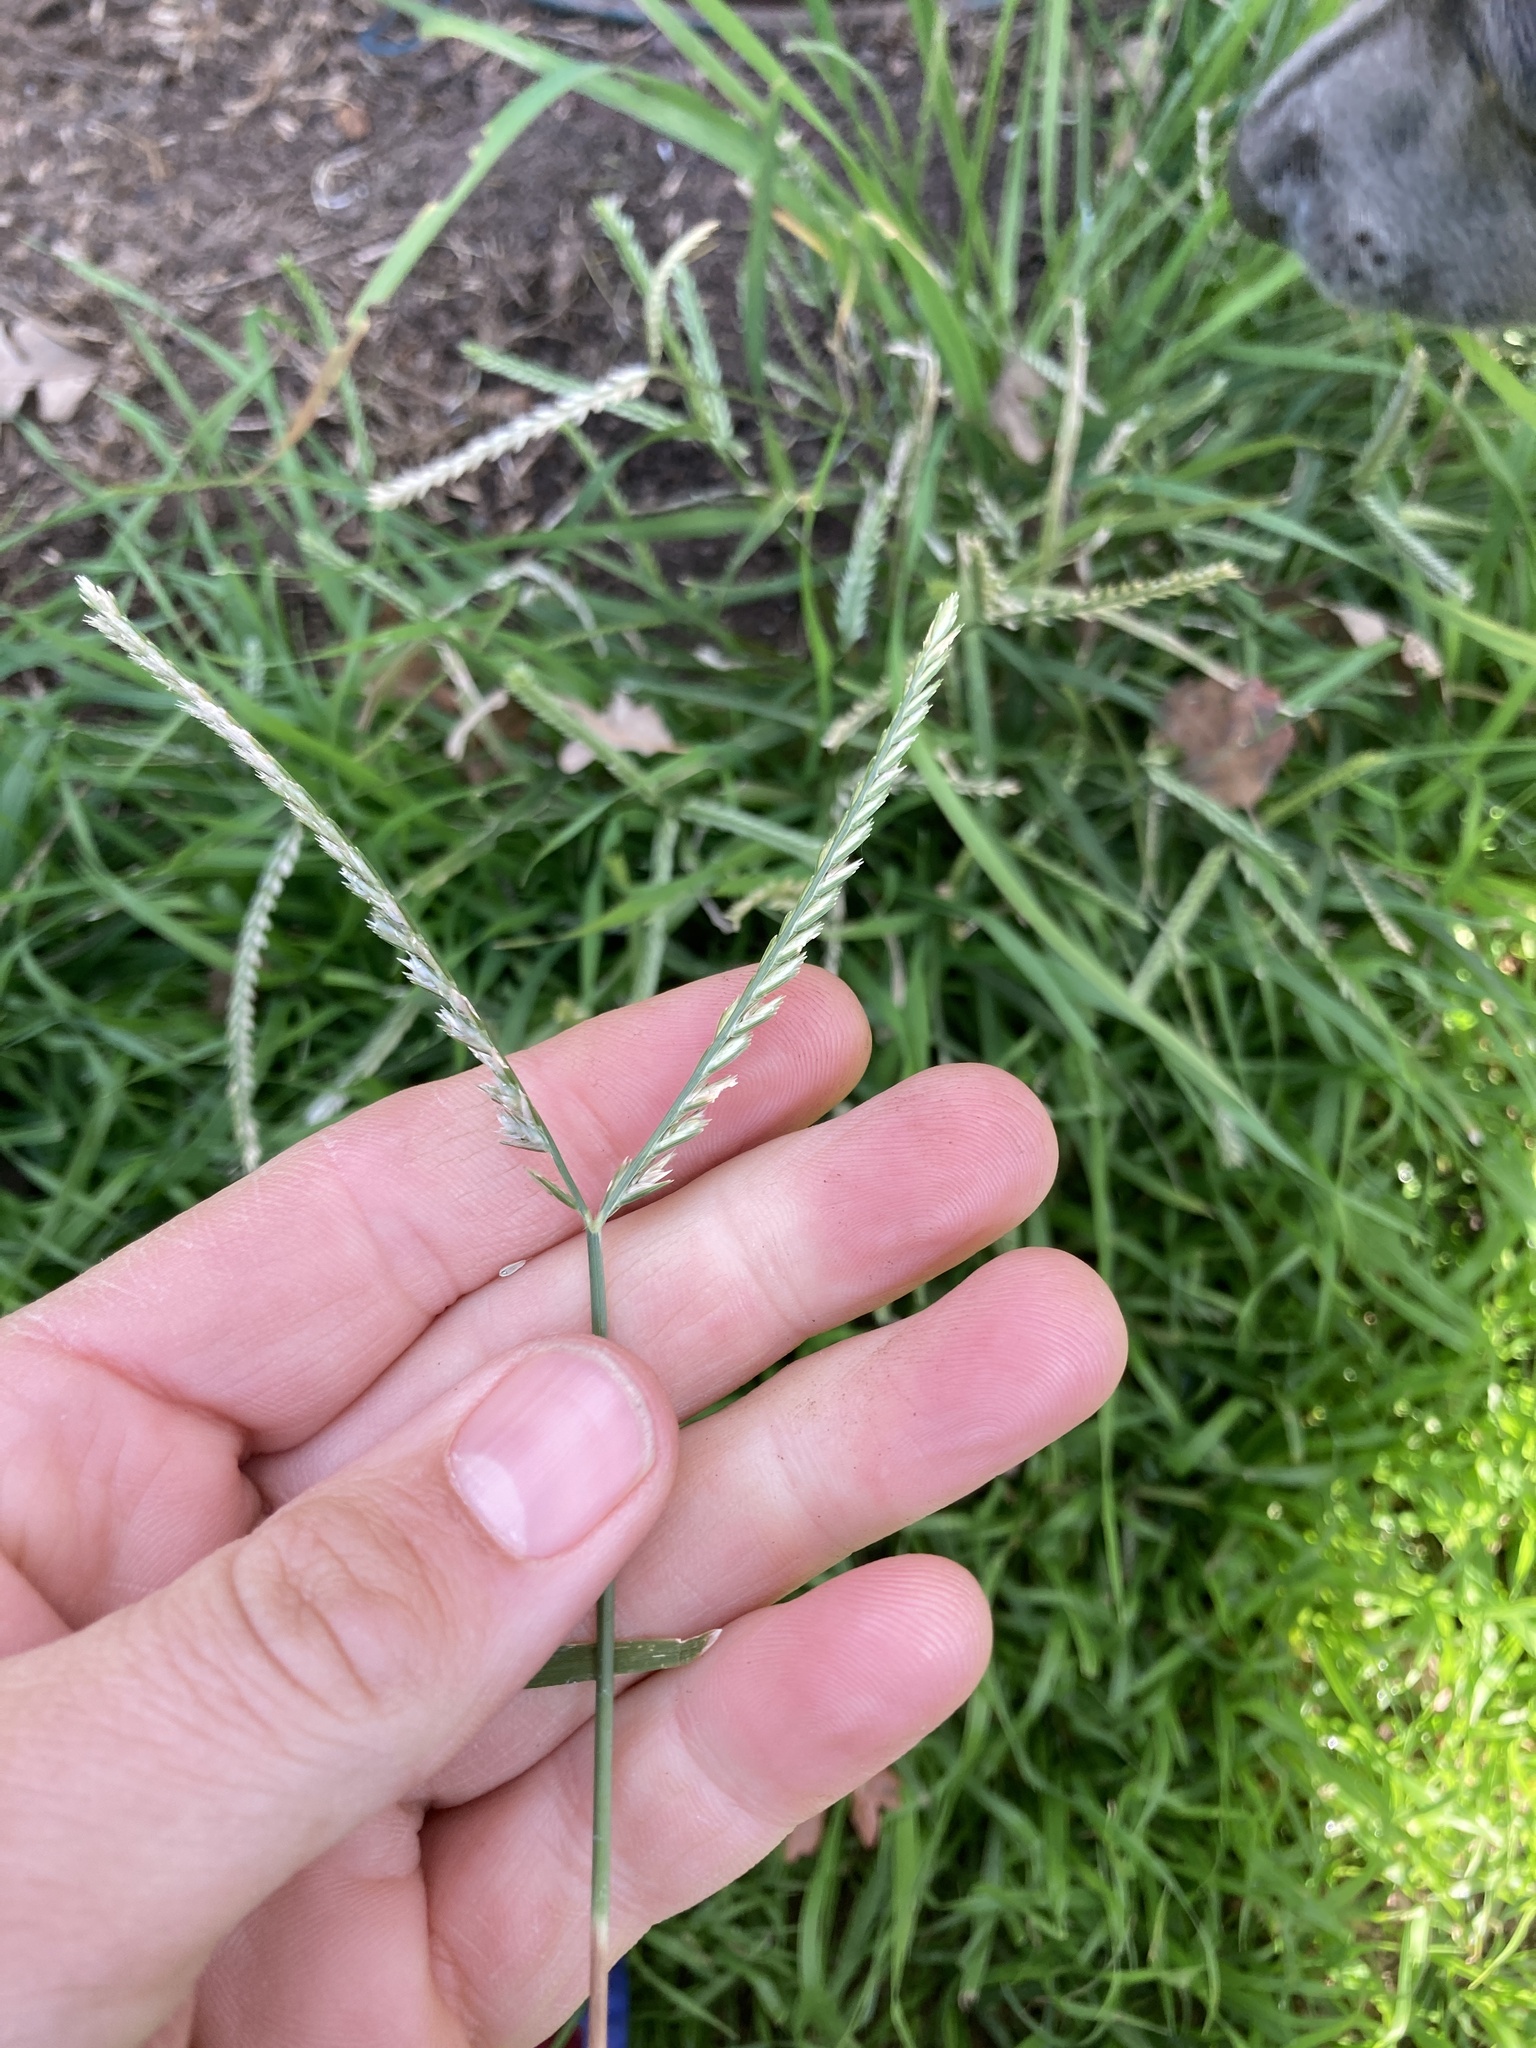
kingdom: Plantae
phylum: Tracheophyta
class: Liliopsida
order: Poales
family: Poaceae
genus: Eleusine
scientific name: Eleusine indica
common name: Yard-grass
